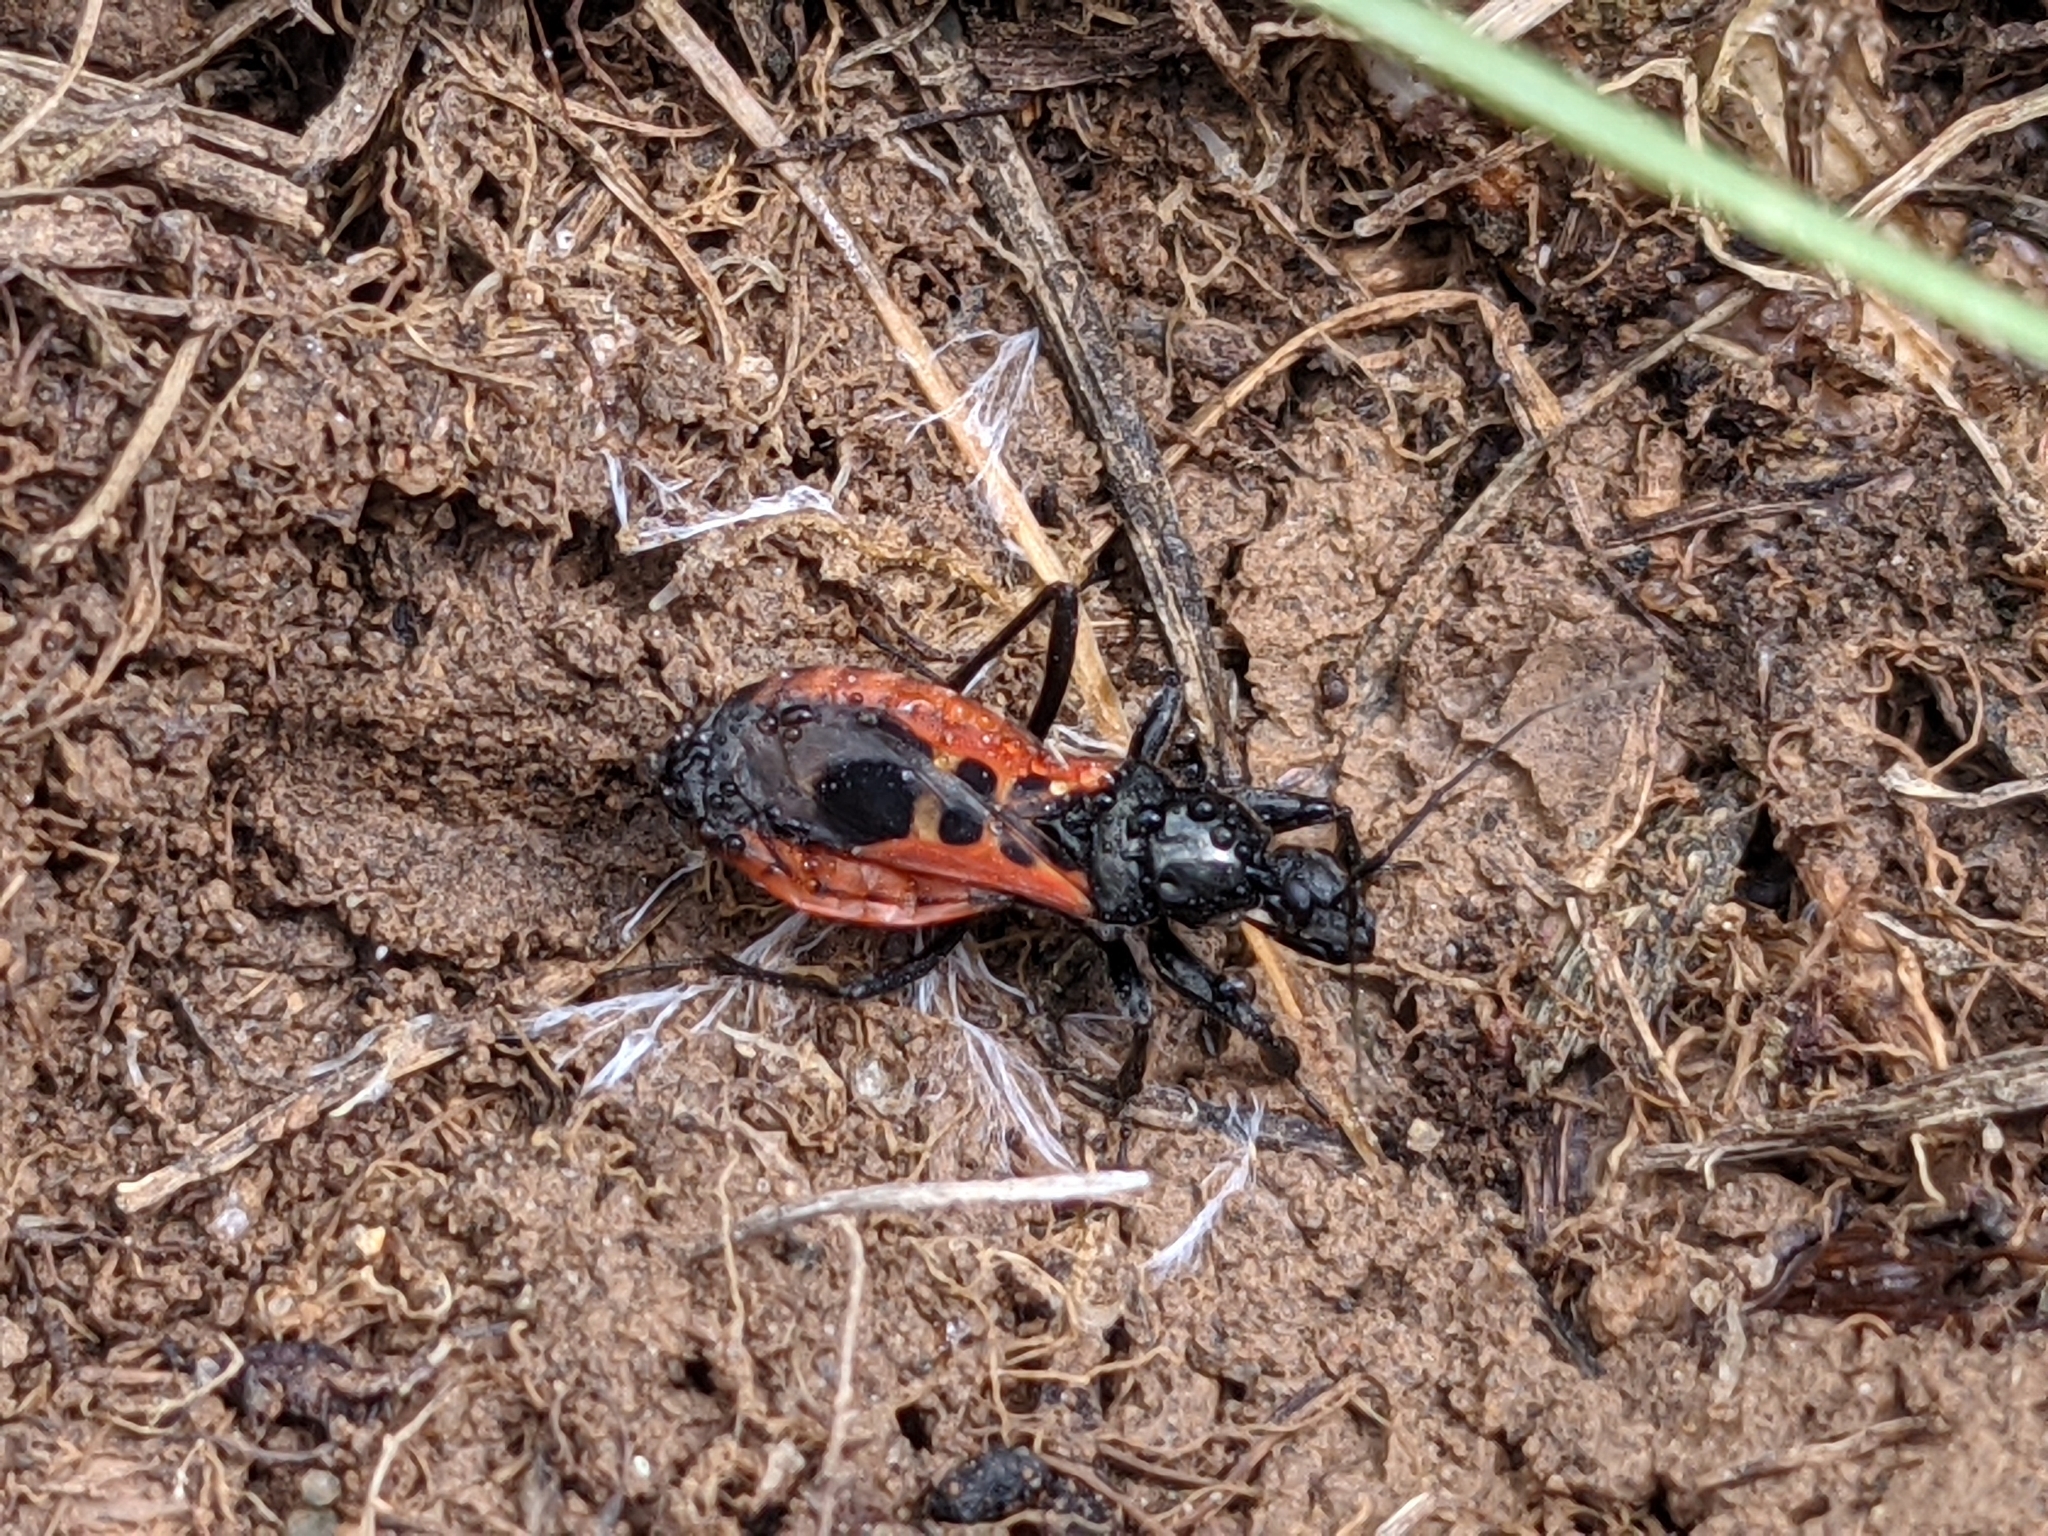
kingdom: Animalia
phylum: Arthropoda
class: Insecta
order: Hemiptera
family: Reduviidae
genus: Peirates
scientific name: Peirates stridulus
